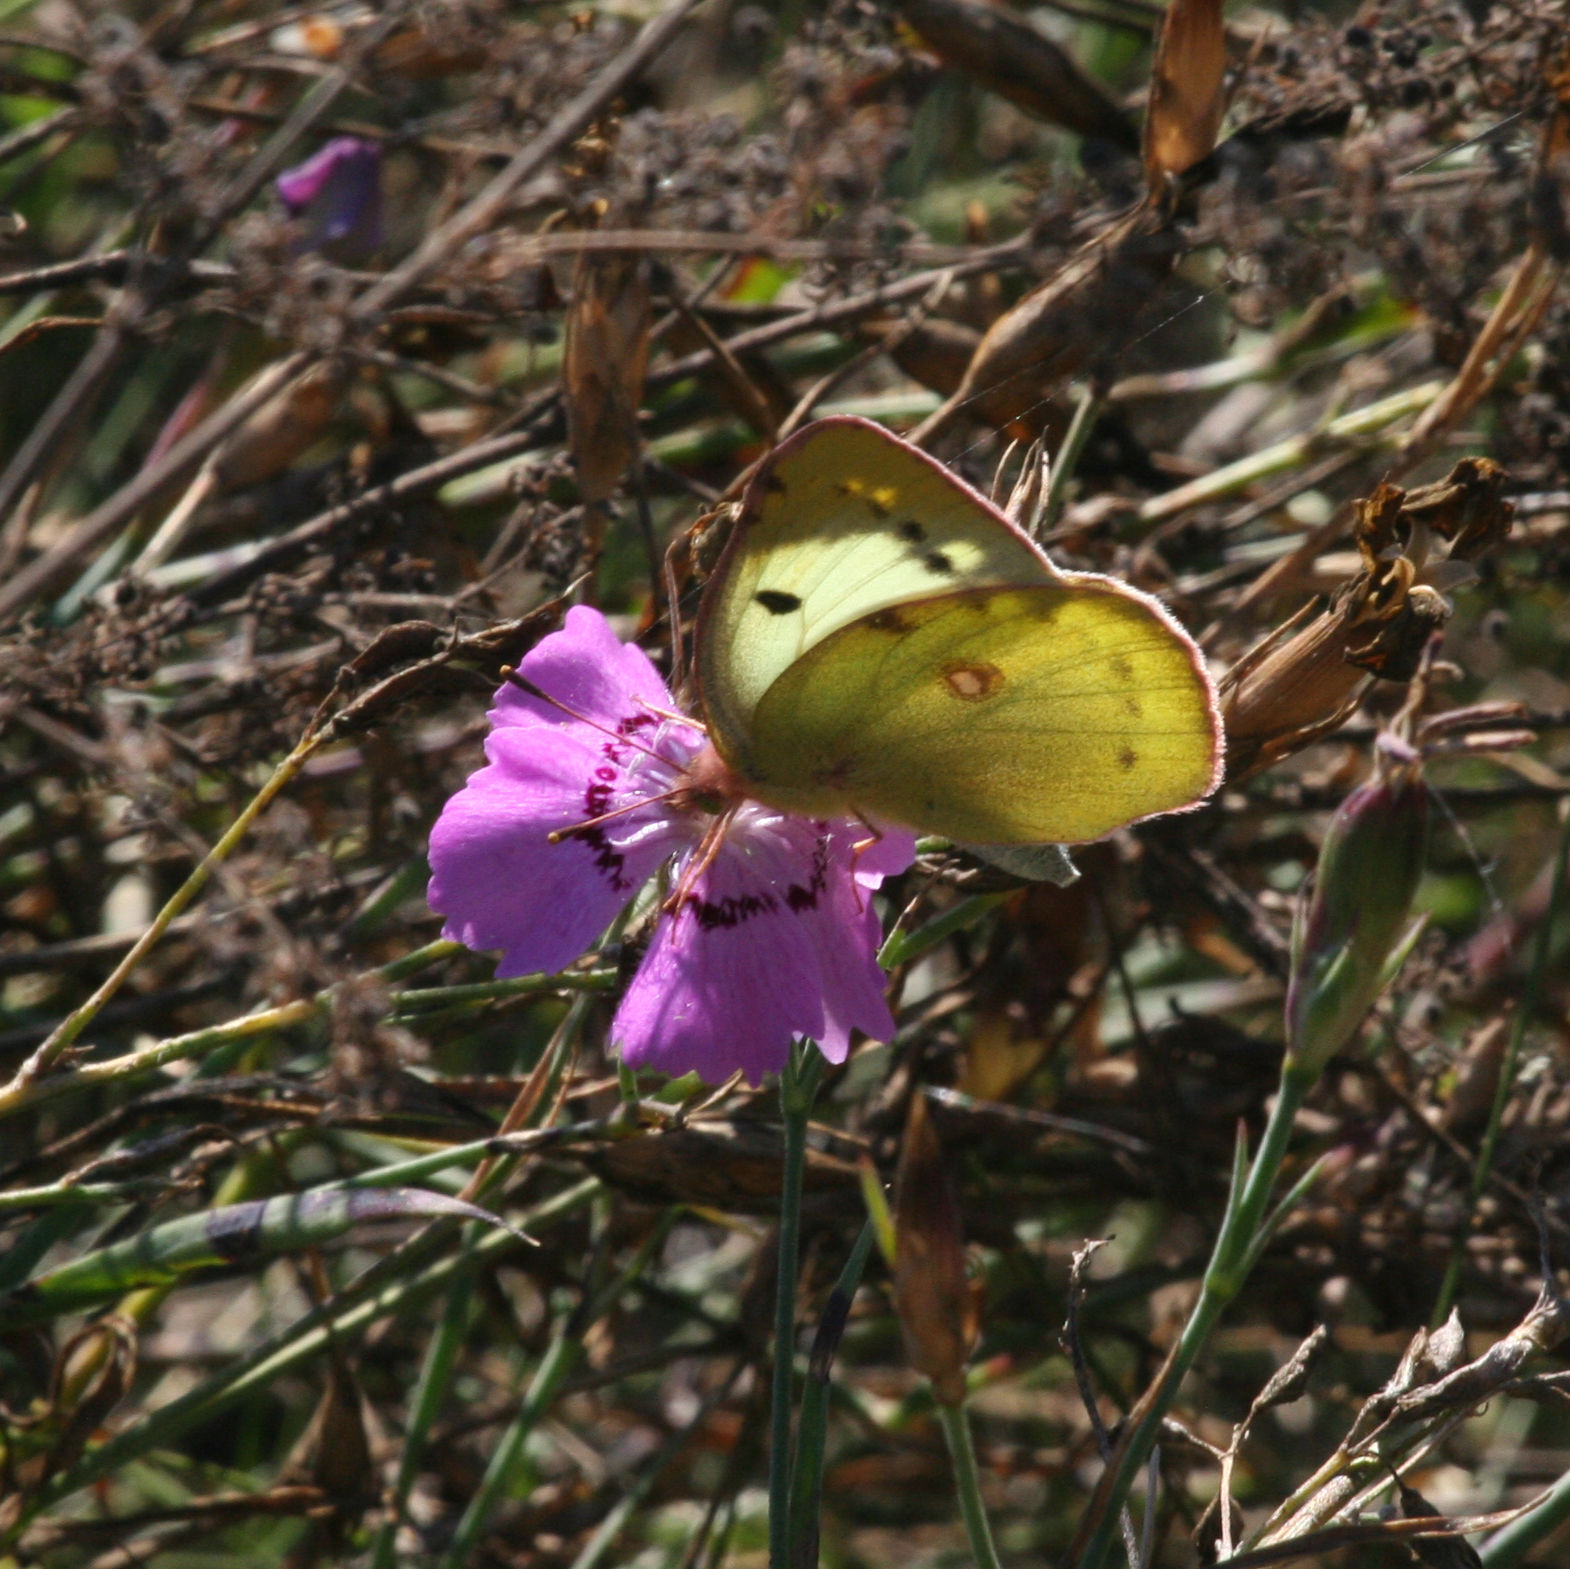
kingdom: Plantae
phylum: Tracheophyta
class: Magnoliopsida
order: Caryophyllales
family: Caryophyllaceae
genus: Dianthus
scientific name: Dianthus chinensis
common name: Rainbow pink
